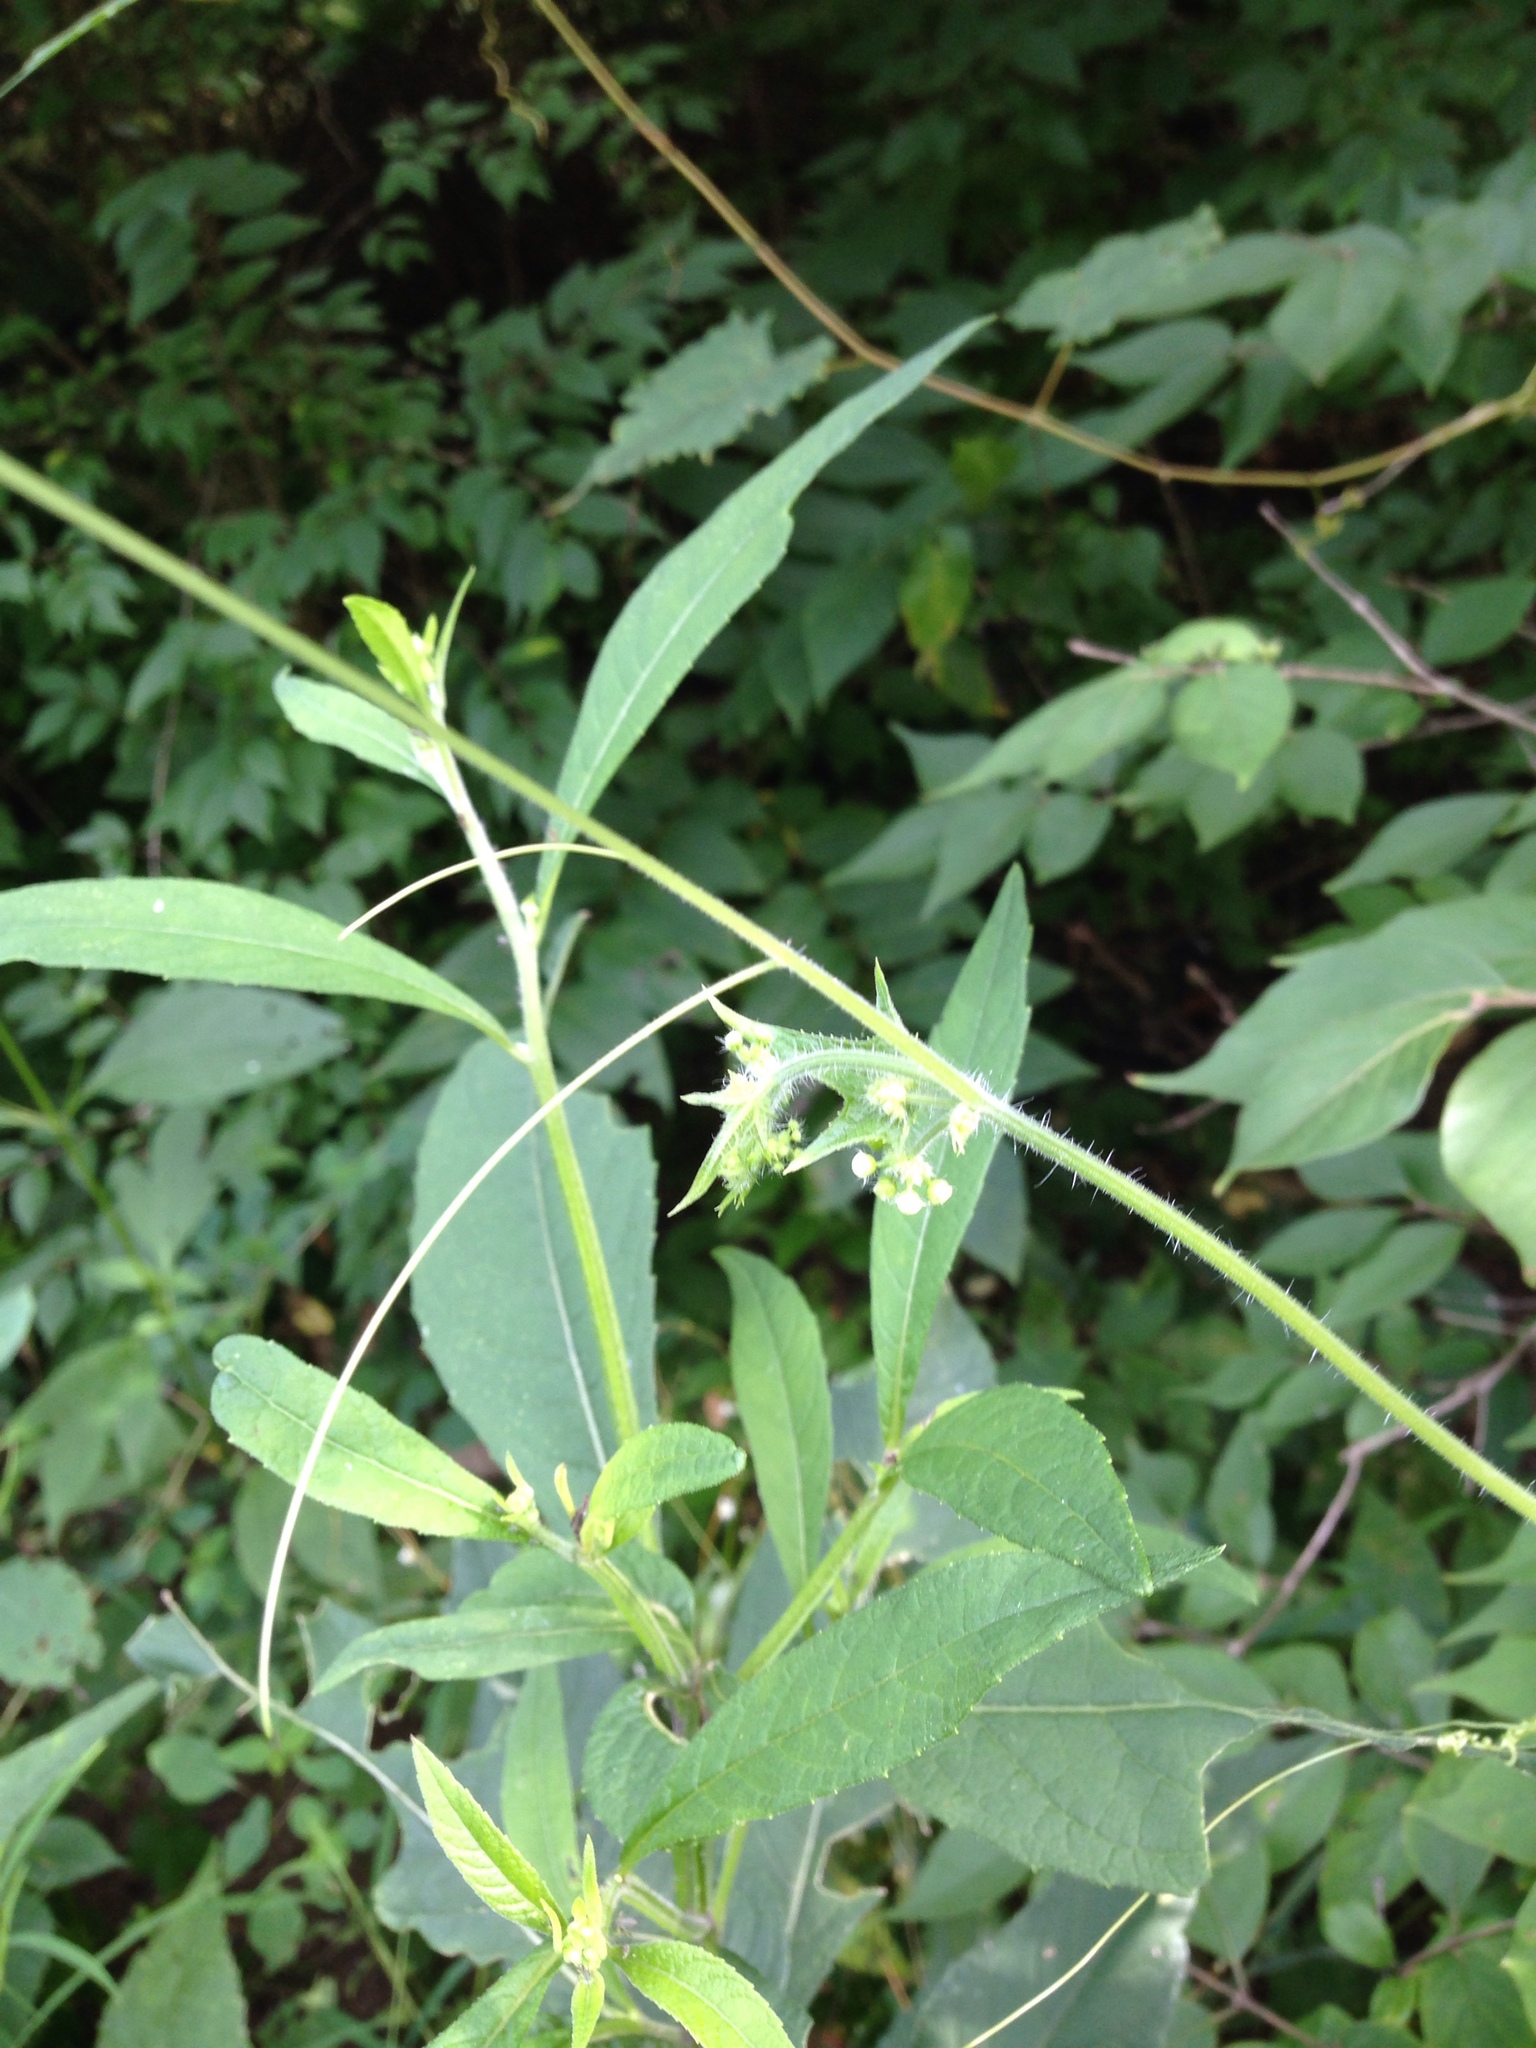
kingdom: Plantae
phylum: Tracheophyta
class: Magnoliopsida
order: Cucurbitales
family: Cucurbitaceae
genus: Sicyos
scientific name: Sicyos angulatus
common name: Angled burr cucumber
